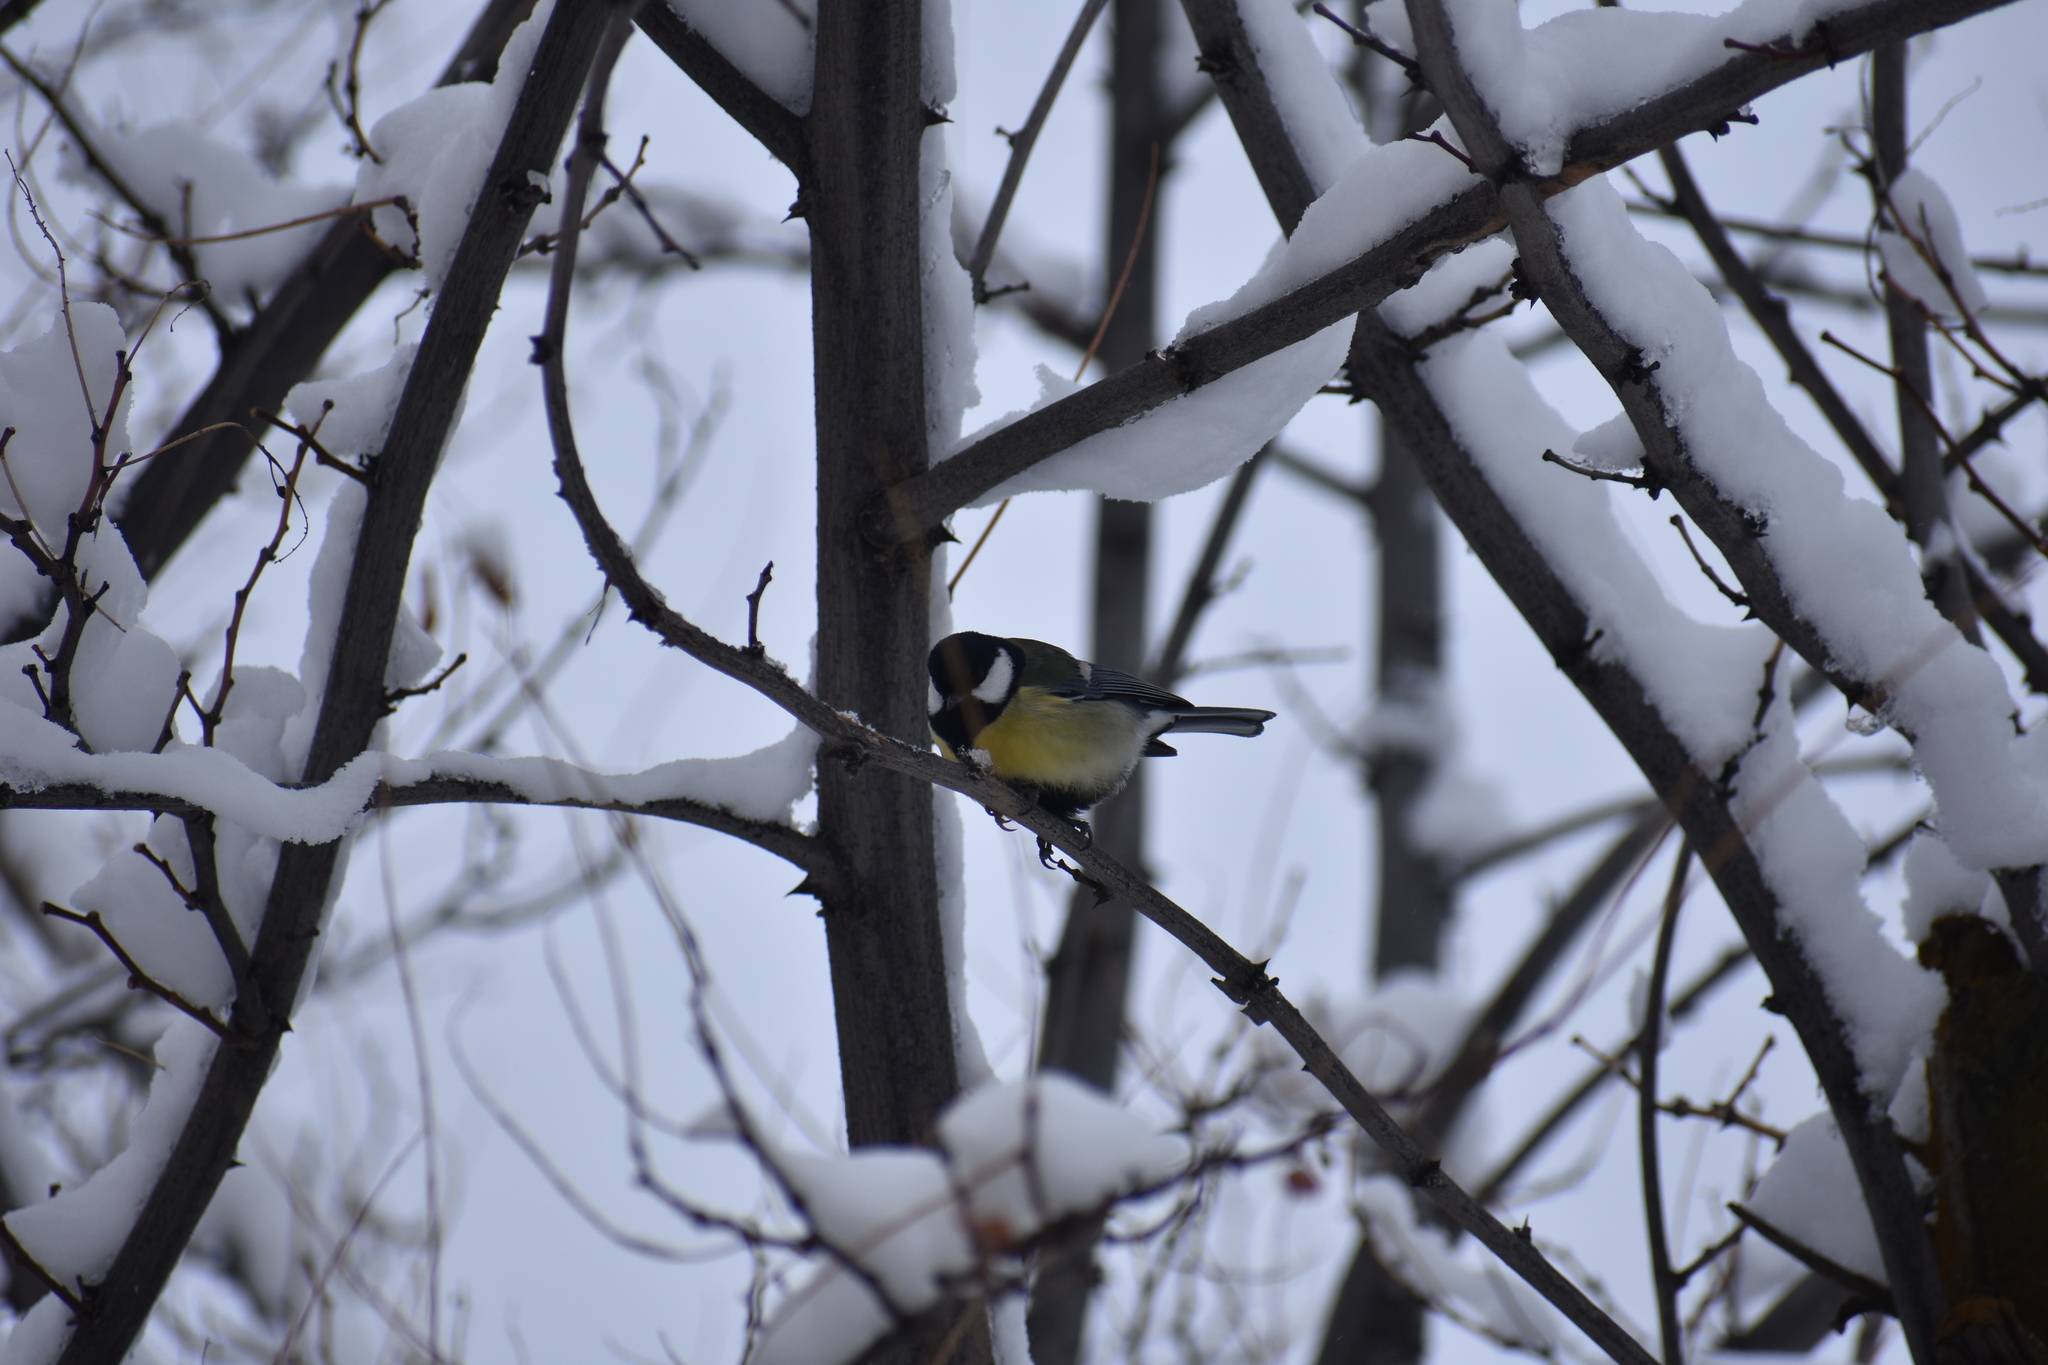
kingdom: Animalia
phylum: Chordata
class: Aves
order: Passeriformes
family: Paridae
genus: Parus
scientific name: Parus major
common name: Great tit
